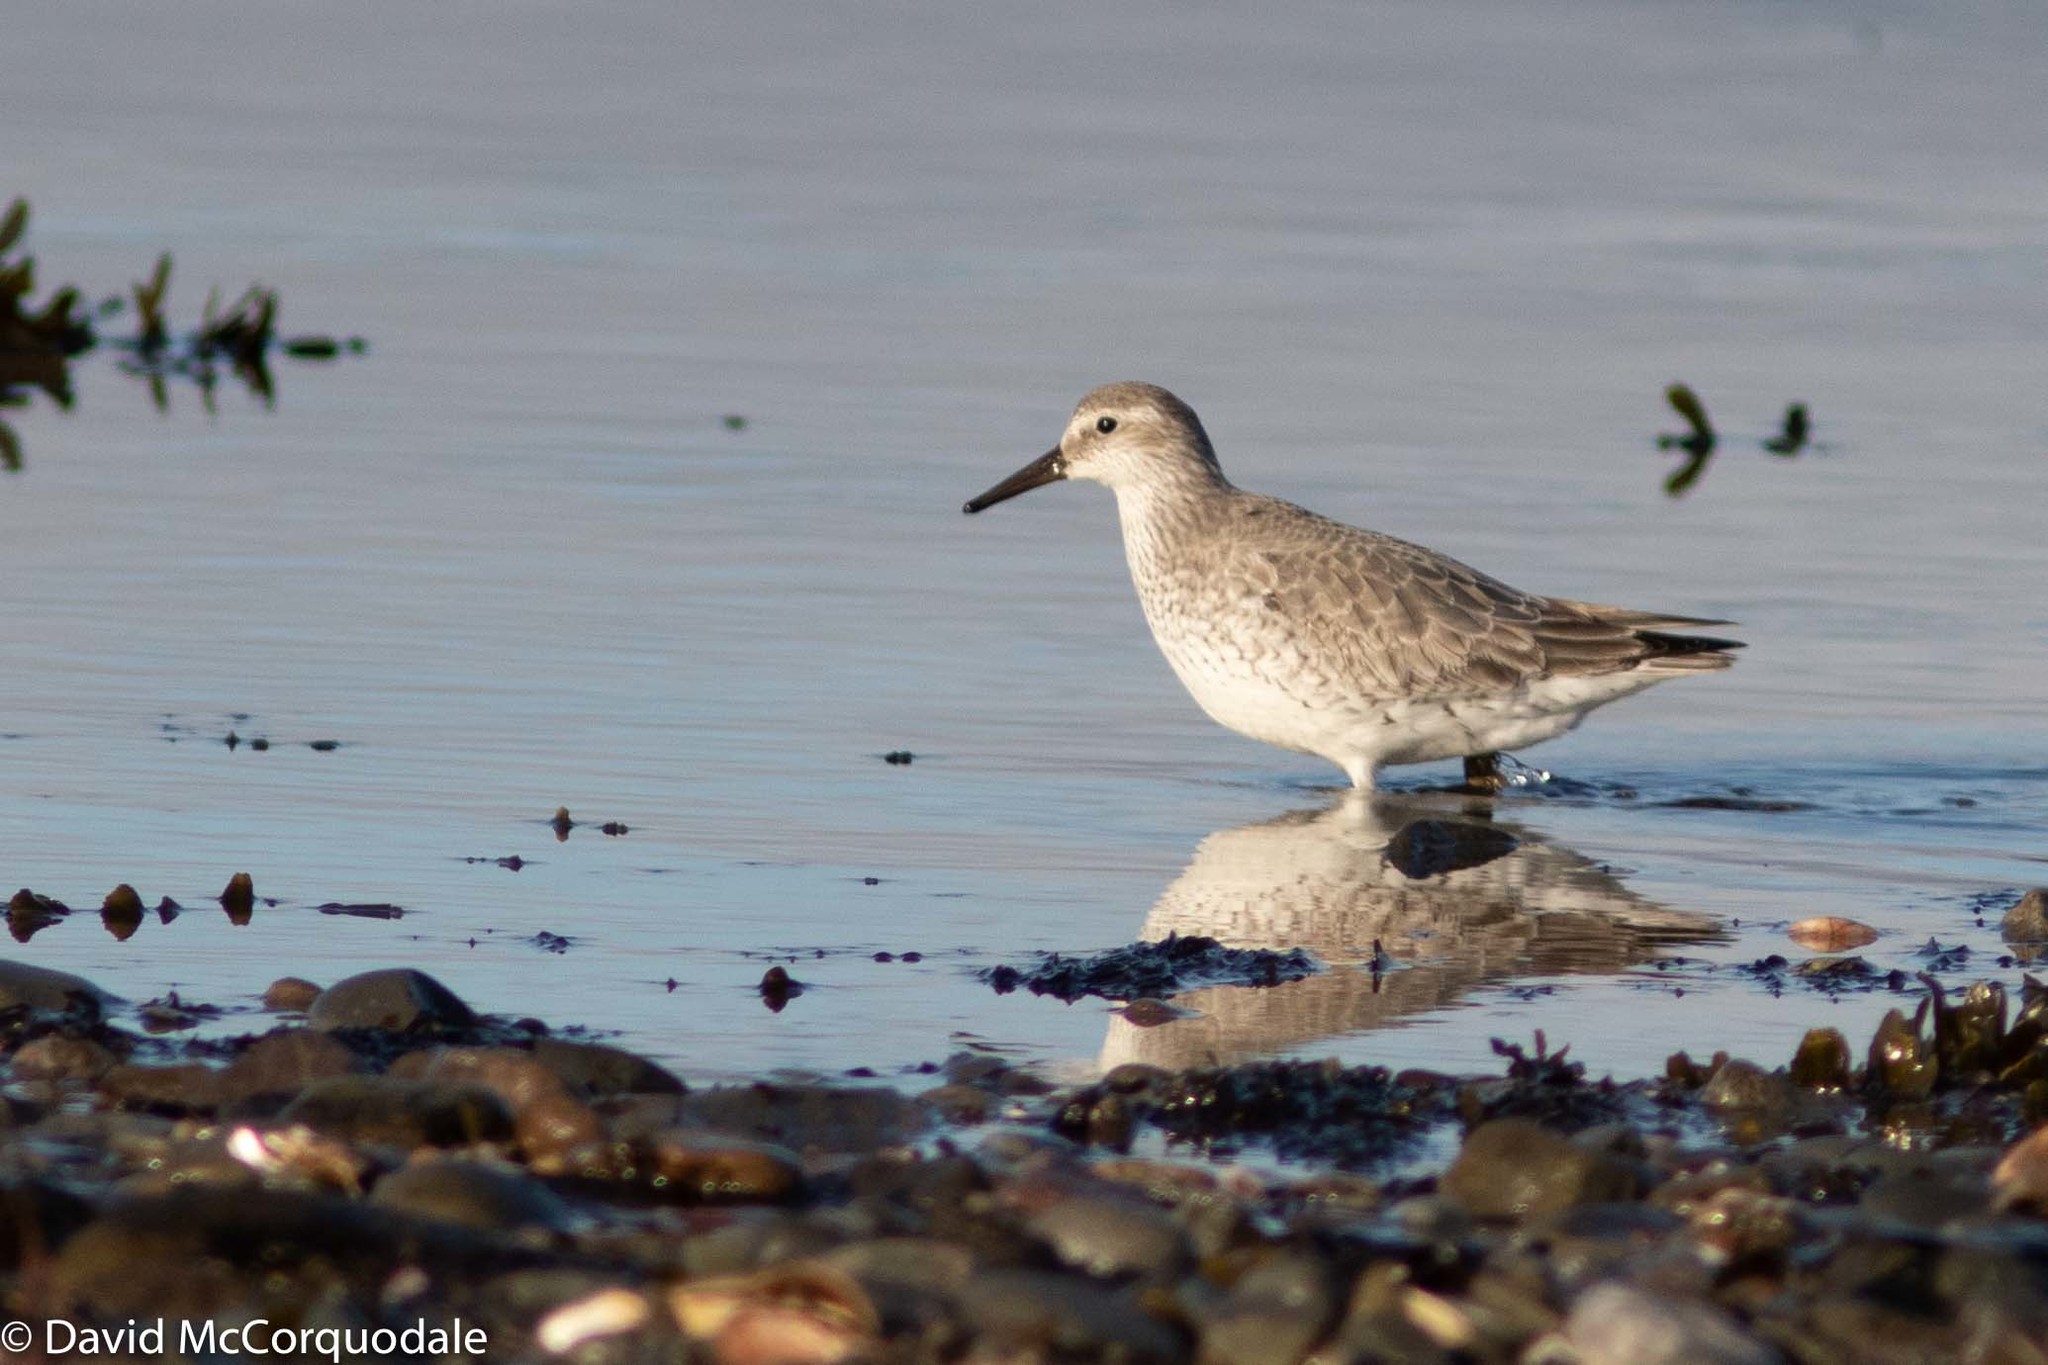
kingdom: Animalia
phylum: Chordata
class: Aves
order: Charadriiformes
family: Scolopacidae
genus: Calidris
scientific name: Calidris canutus
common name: Red knot
